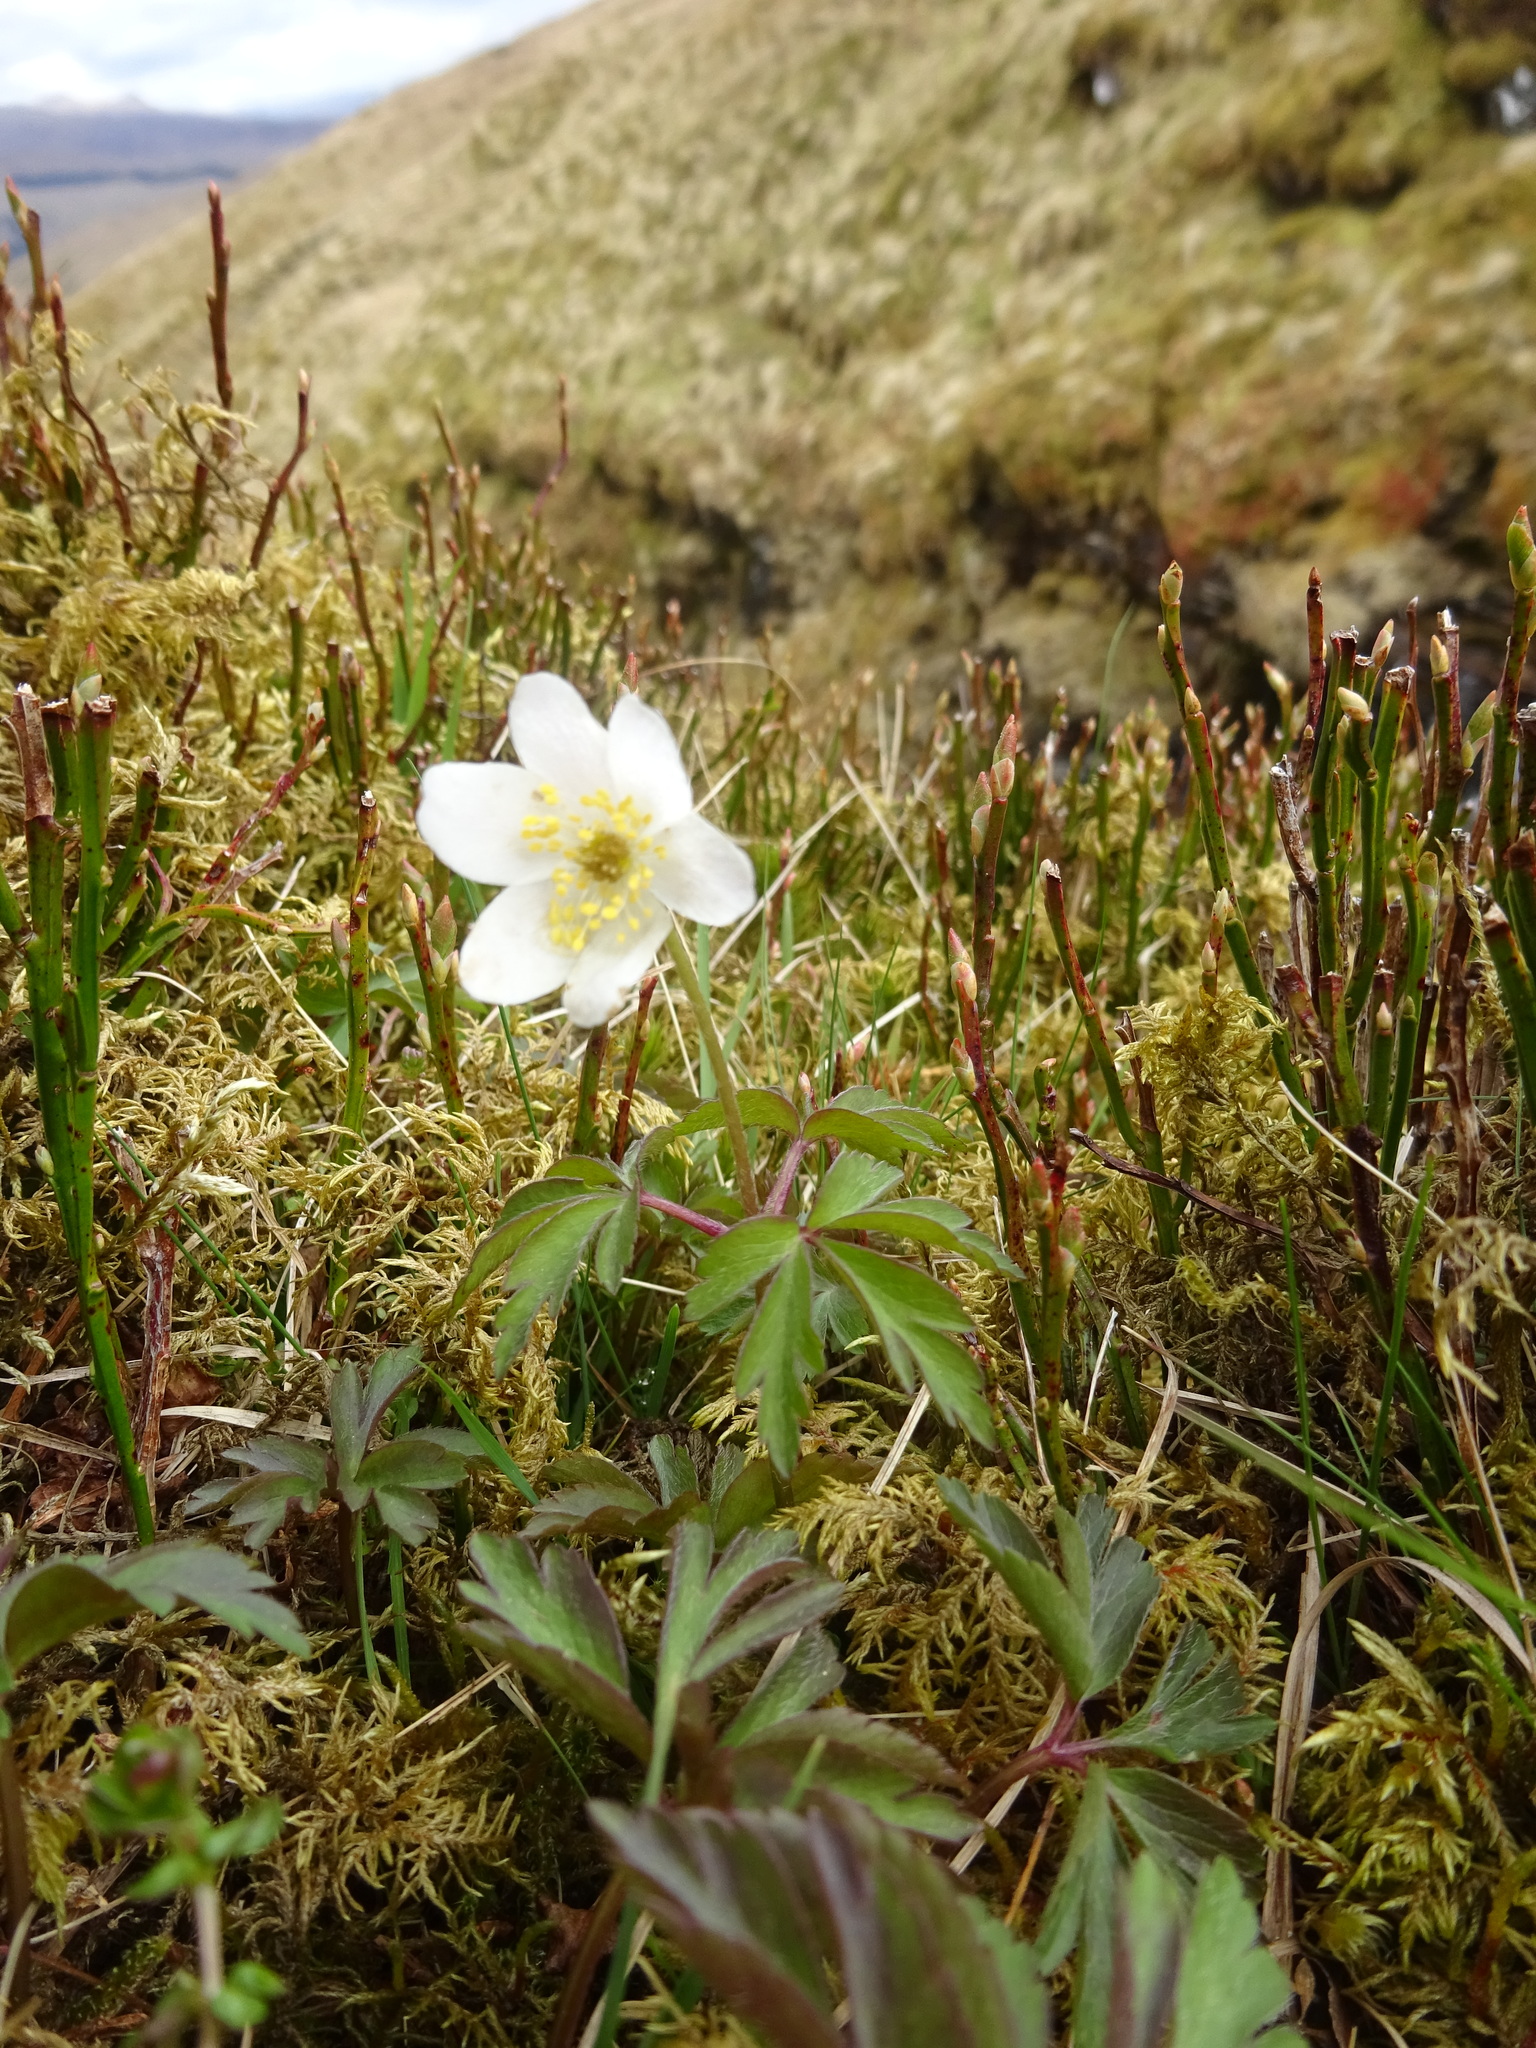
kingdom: Plantae
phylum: Tracheophyta
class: Magnoliopsida
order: Ranunculales
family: Ranunculaceae
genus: Anemone
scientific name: Anemone nemorosa
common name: Wood anemone
